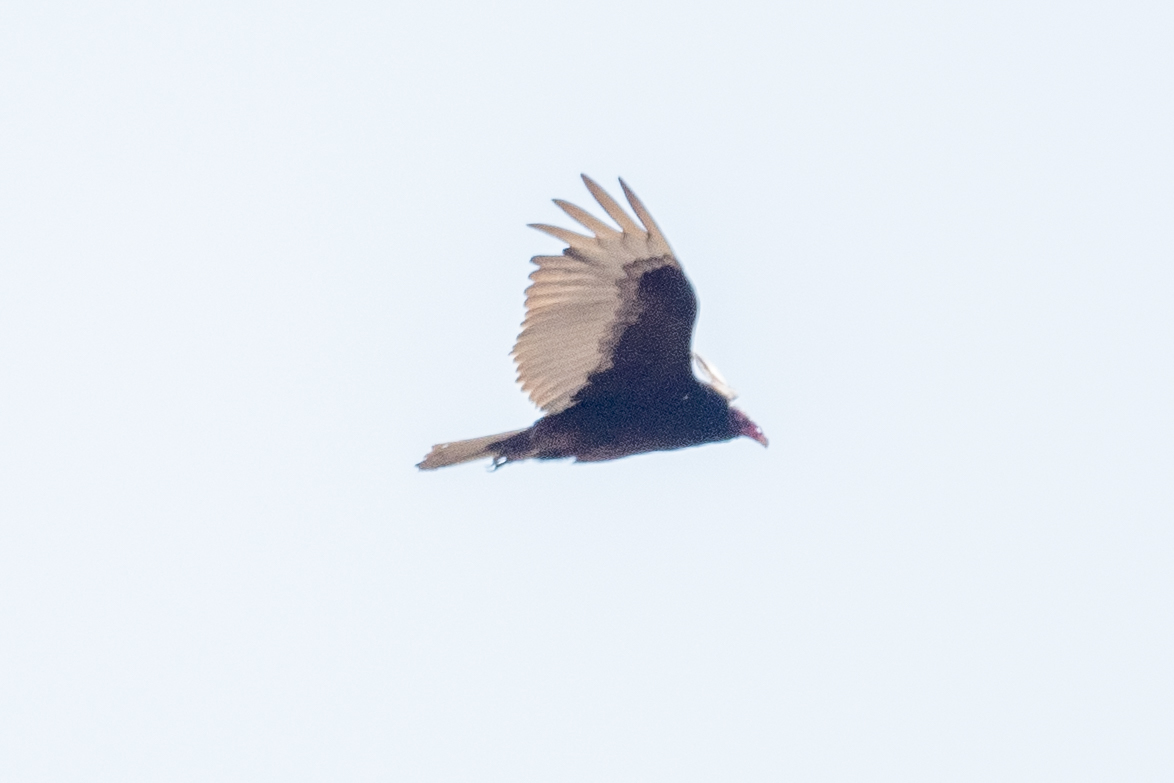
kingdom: Animalia
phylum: Chordata
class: Aves
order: Accipitriformes
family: Cathartidae
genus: Cathartes
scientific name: Cathartes aura
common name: Turkey vulture
